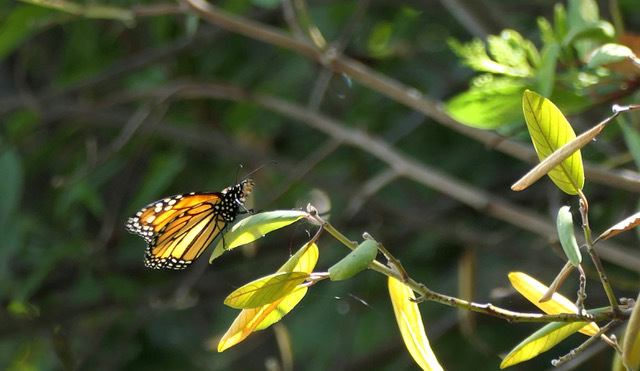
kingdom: Animalia
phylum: Arthropoda
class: Insecta
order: Lepidoptera
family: Nymphalidae
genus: Danaus
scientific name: Danaus plexippus
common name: Monarch
